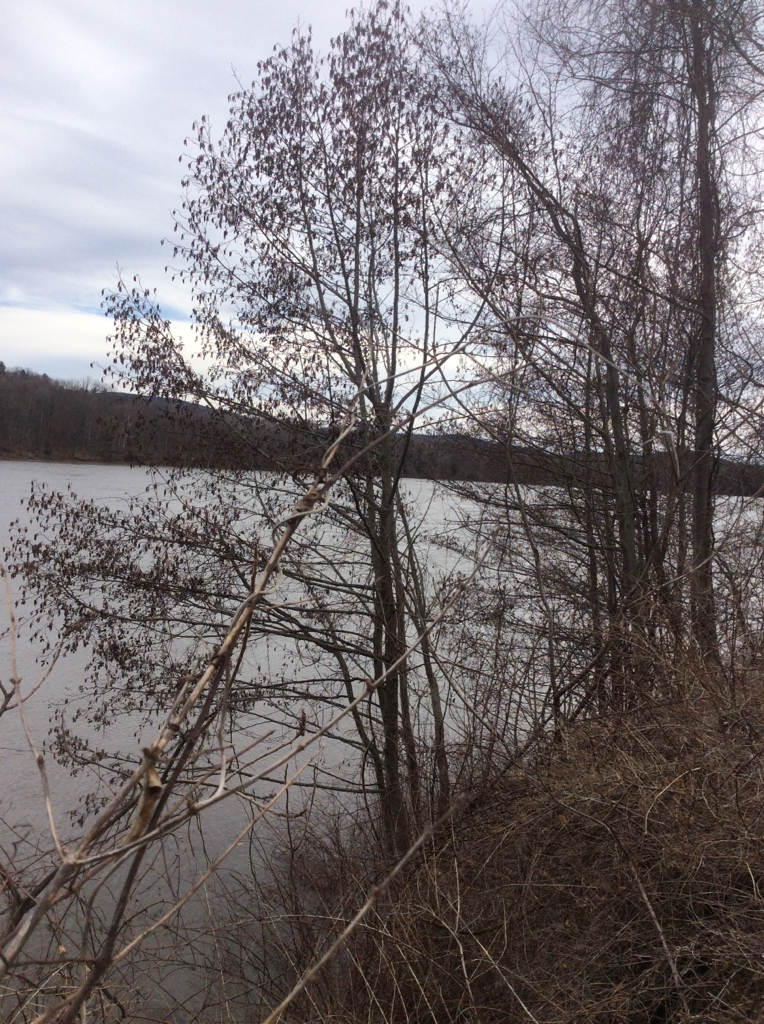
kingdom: Plantae
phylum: Tracheophyta
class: Magnoliopsida
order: Fagales
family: Betulaceae
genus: Alnus
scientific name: Alnus glutinosa
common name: Black alder
